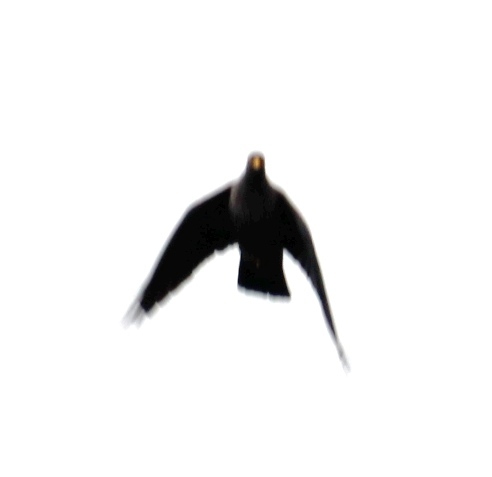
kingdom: Animalia
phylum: Chordata
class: Aves
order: Columbiformes
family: Columbidae
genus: Columba
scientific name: Columba arquatrix
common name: African olive pigeon
